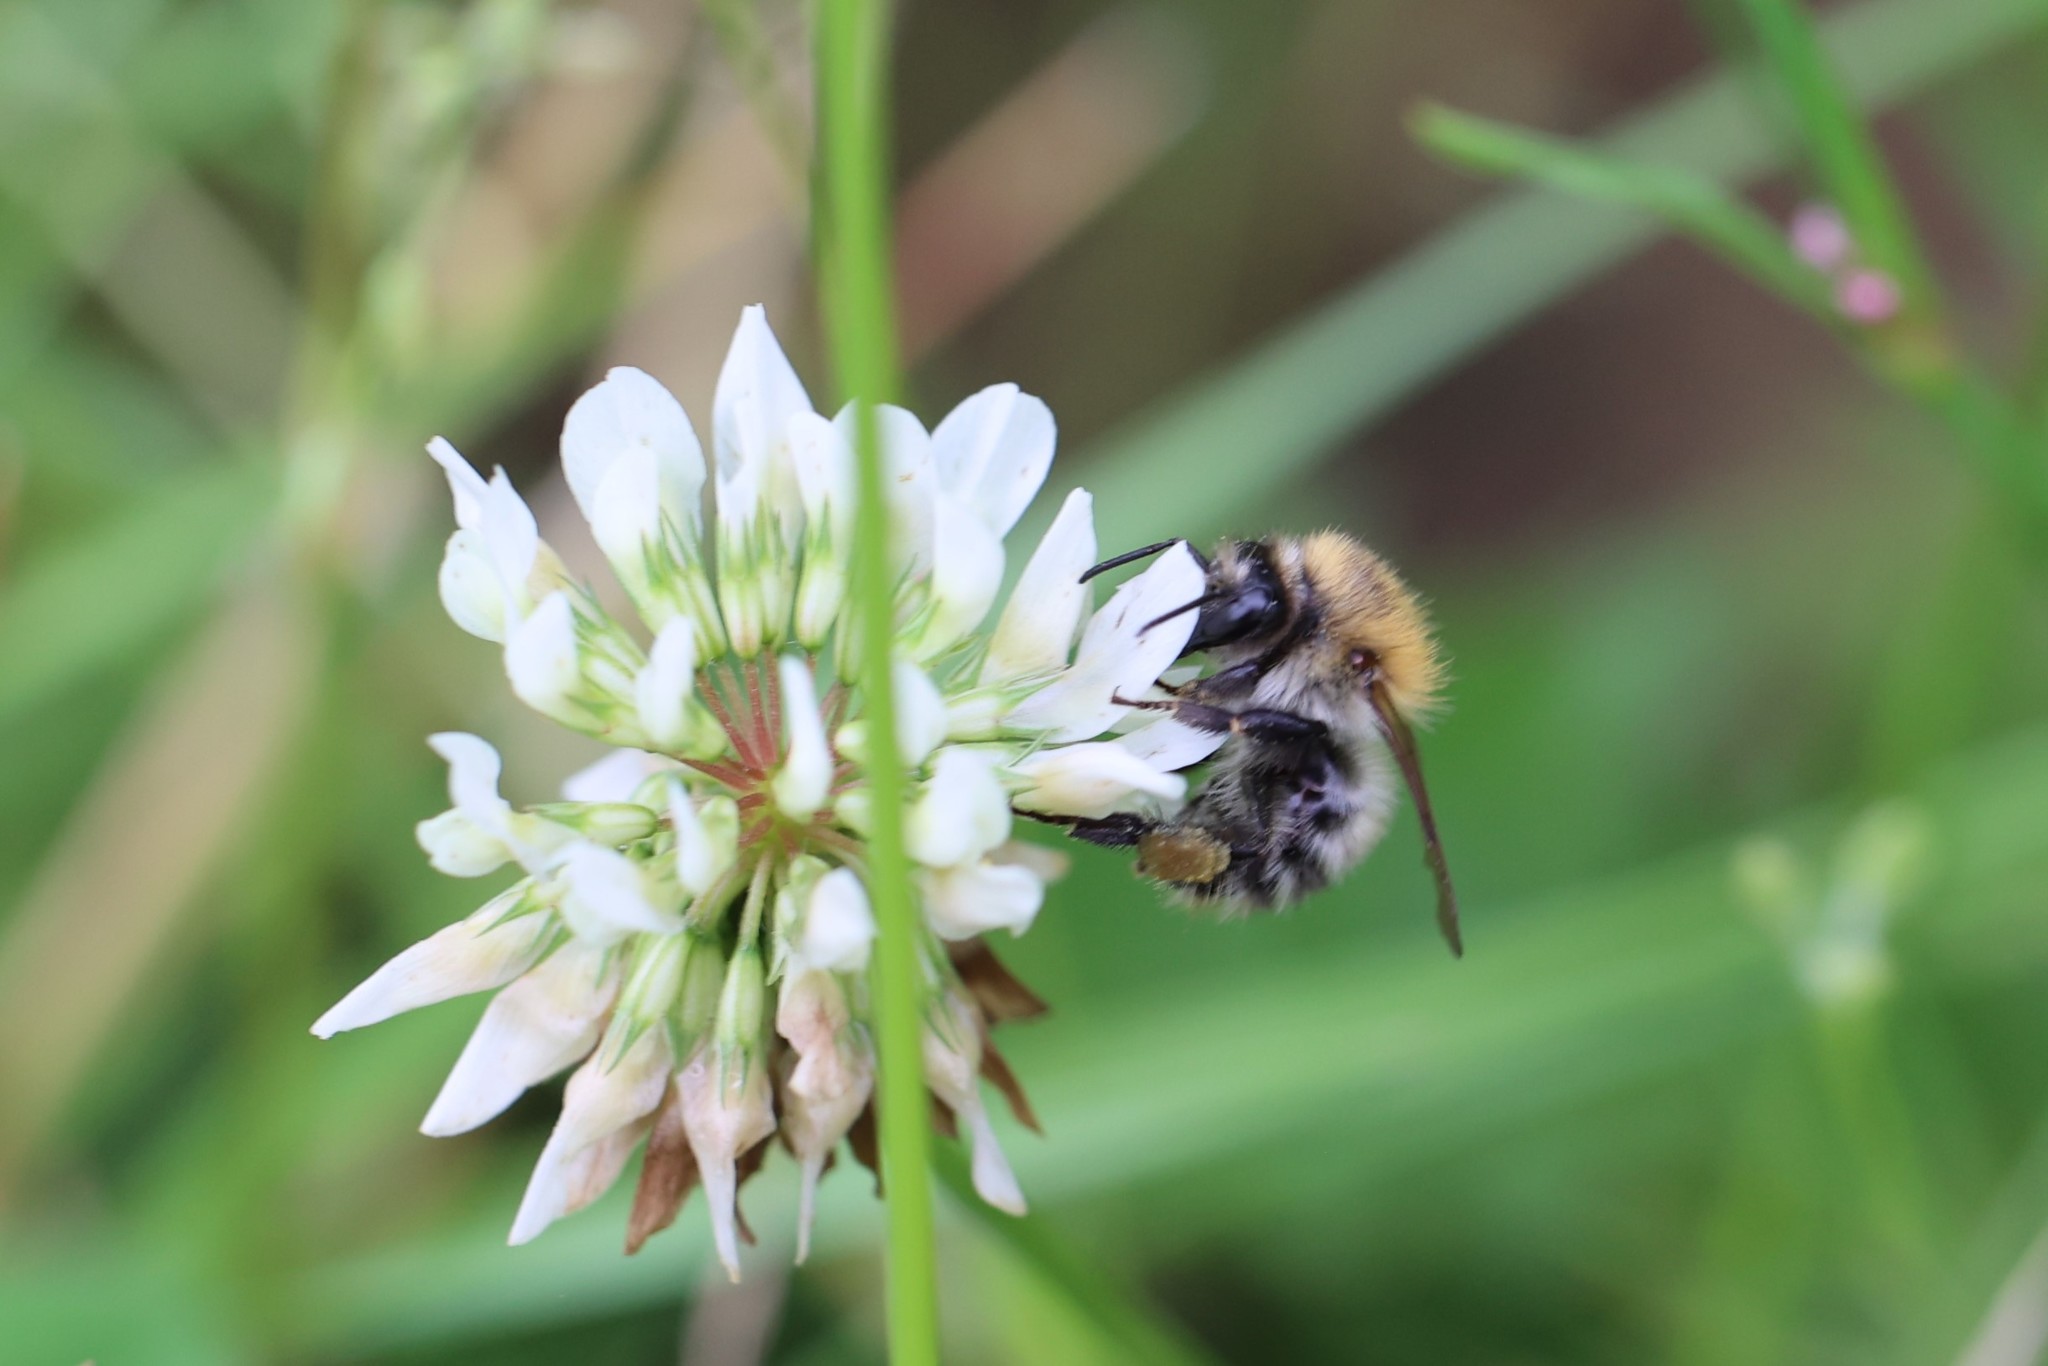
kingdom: Animalia
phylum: Arthropoda
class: Insecta
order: Hymenoptera
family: Apidae
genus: Bombus
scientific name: Bombus pascuorum
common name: Common carder bee
